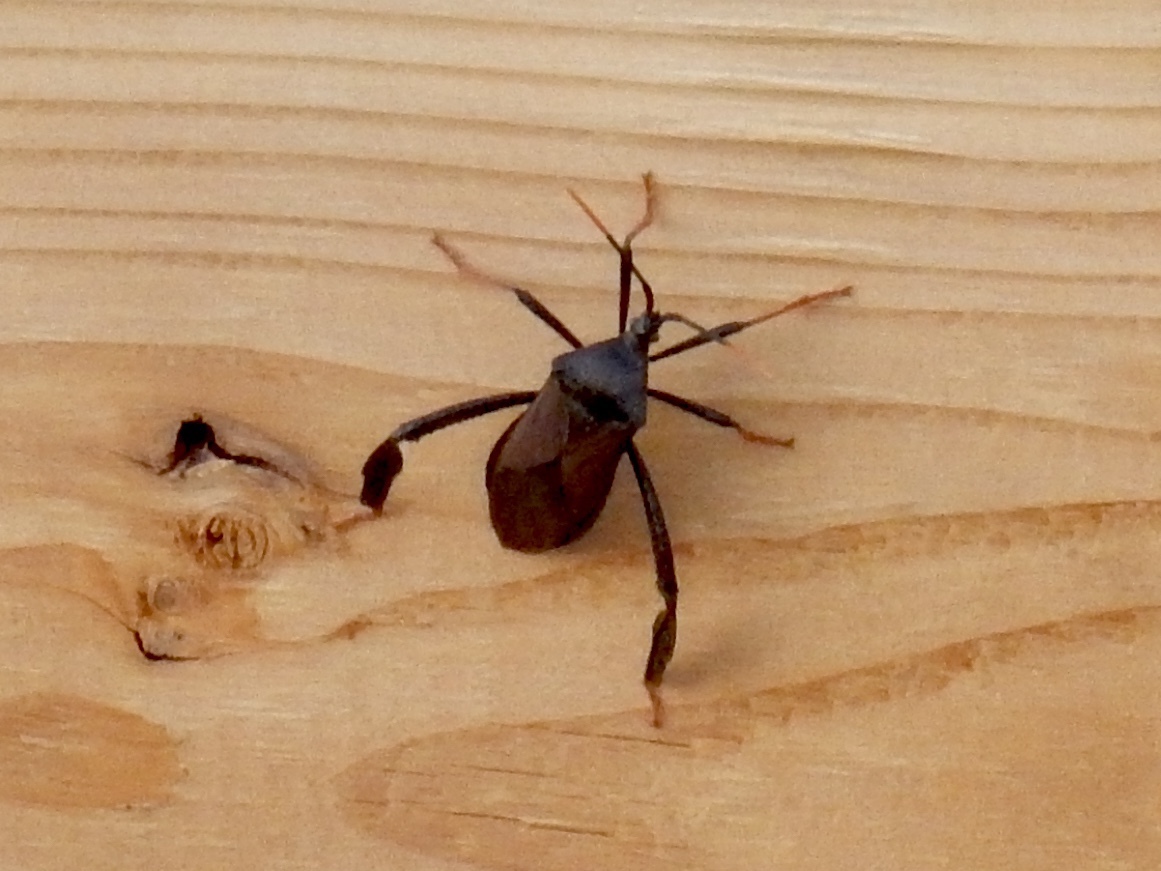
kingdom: Animalia
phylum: Arthropoda
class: Insecta
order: Hemiptera
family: Coreidae
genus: Acanthocephala
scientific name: Acanthocephala thomasi
